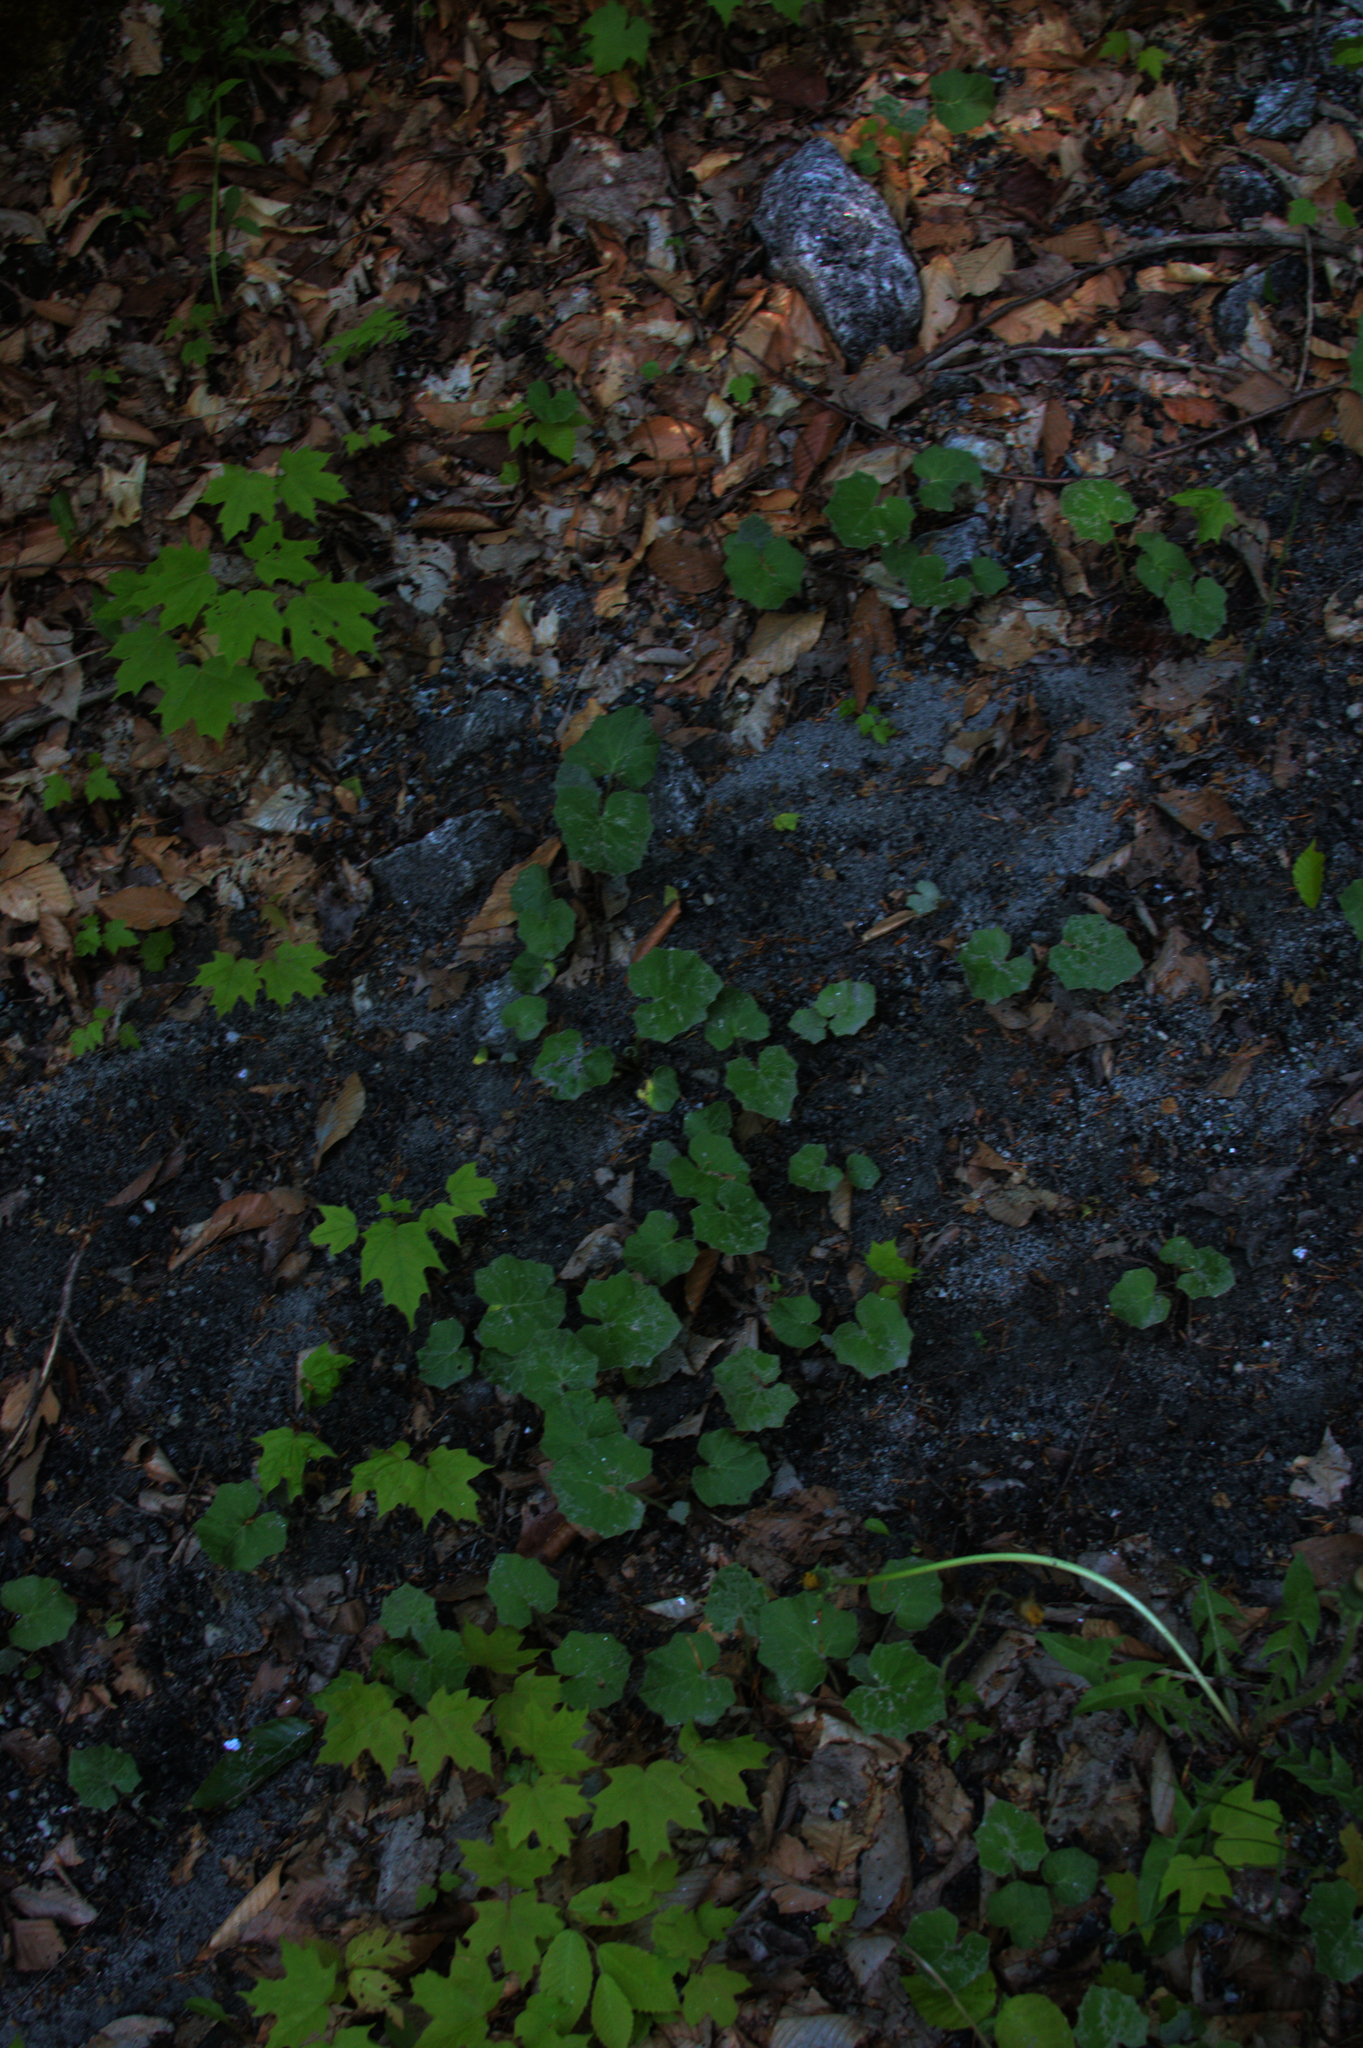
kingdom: Plantae
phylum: Tracheophyta
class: Magnoliopsida
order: Asterales
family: Asteraceae
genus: Tussilago
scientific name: Tussilago farfara
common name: Coltsfoot
